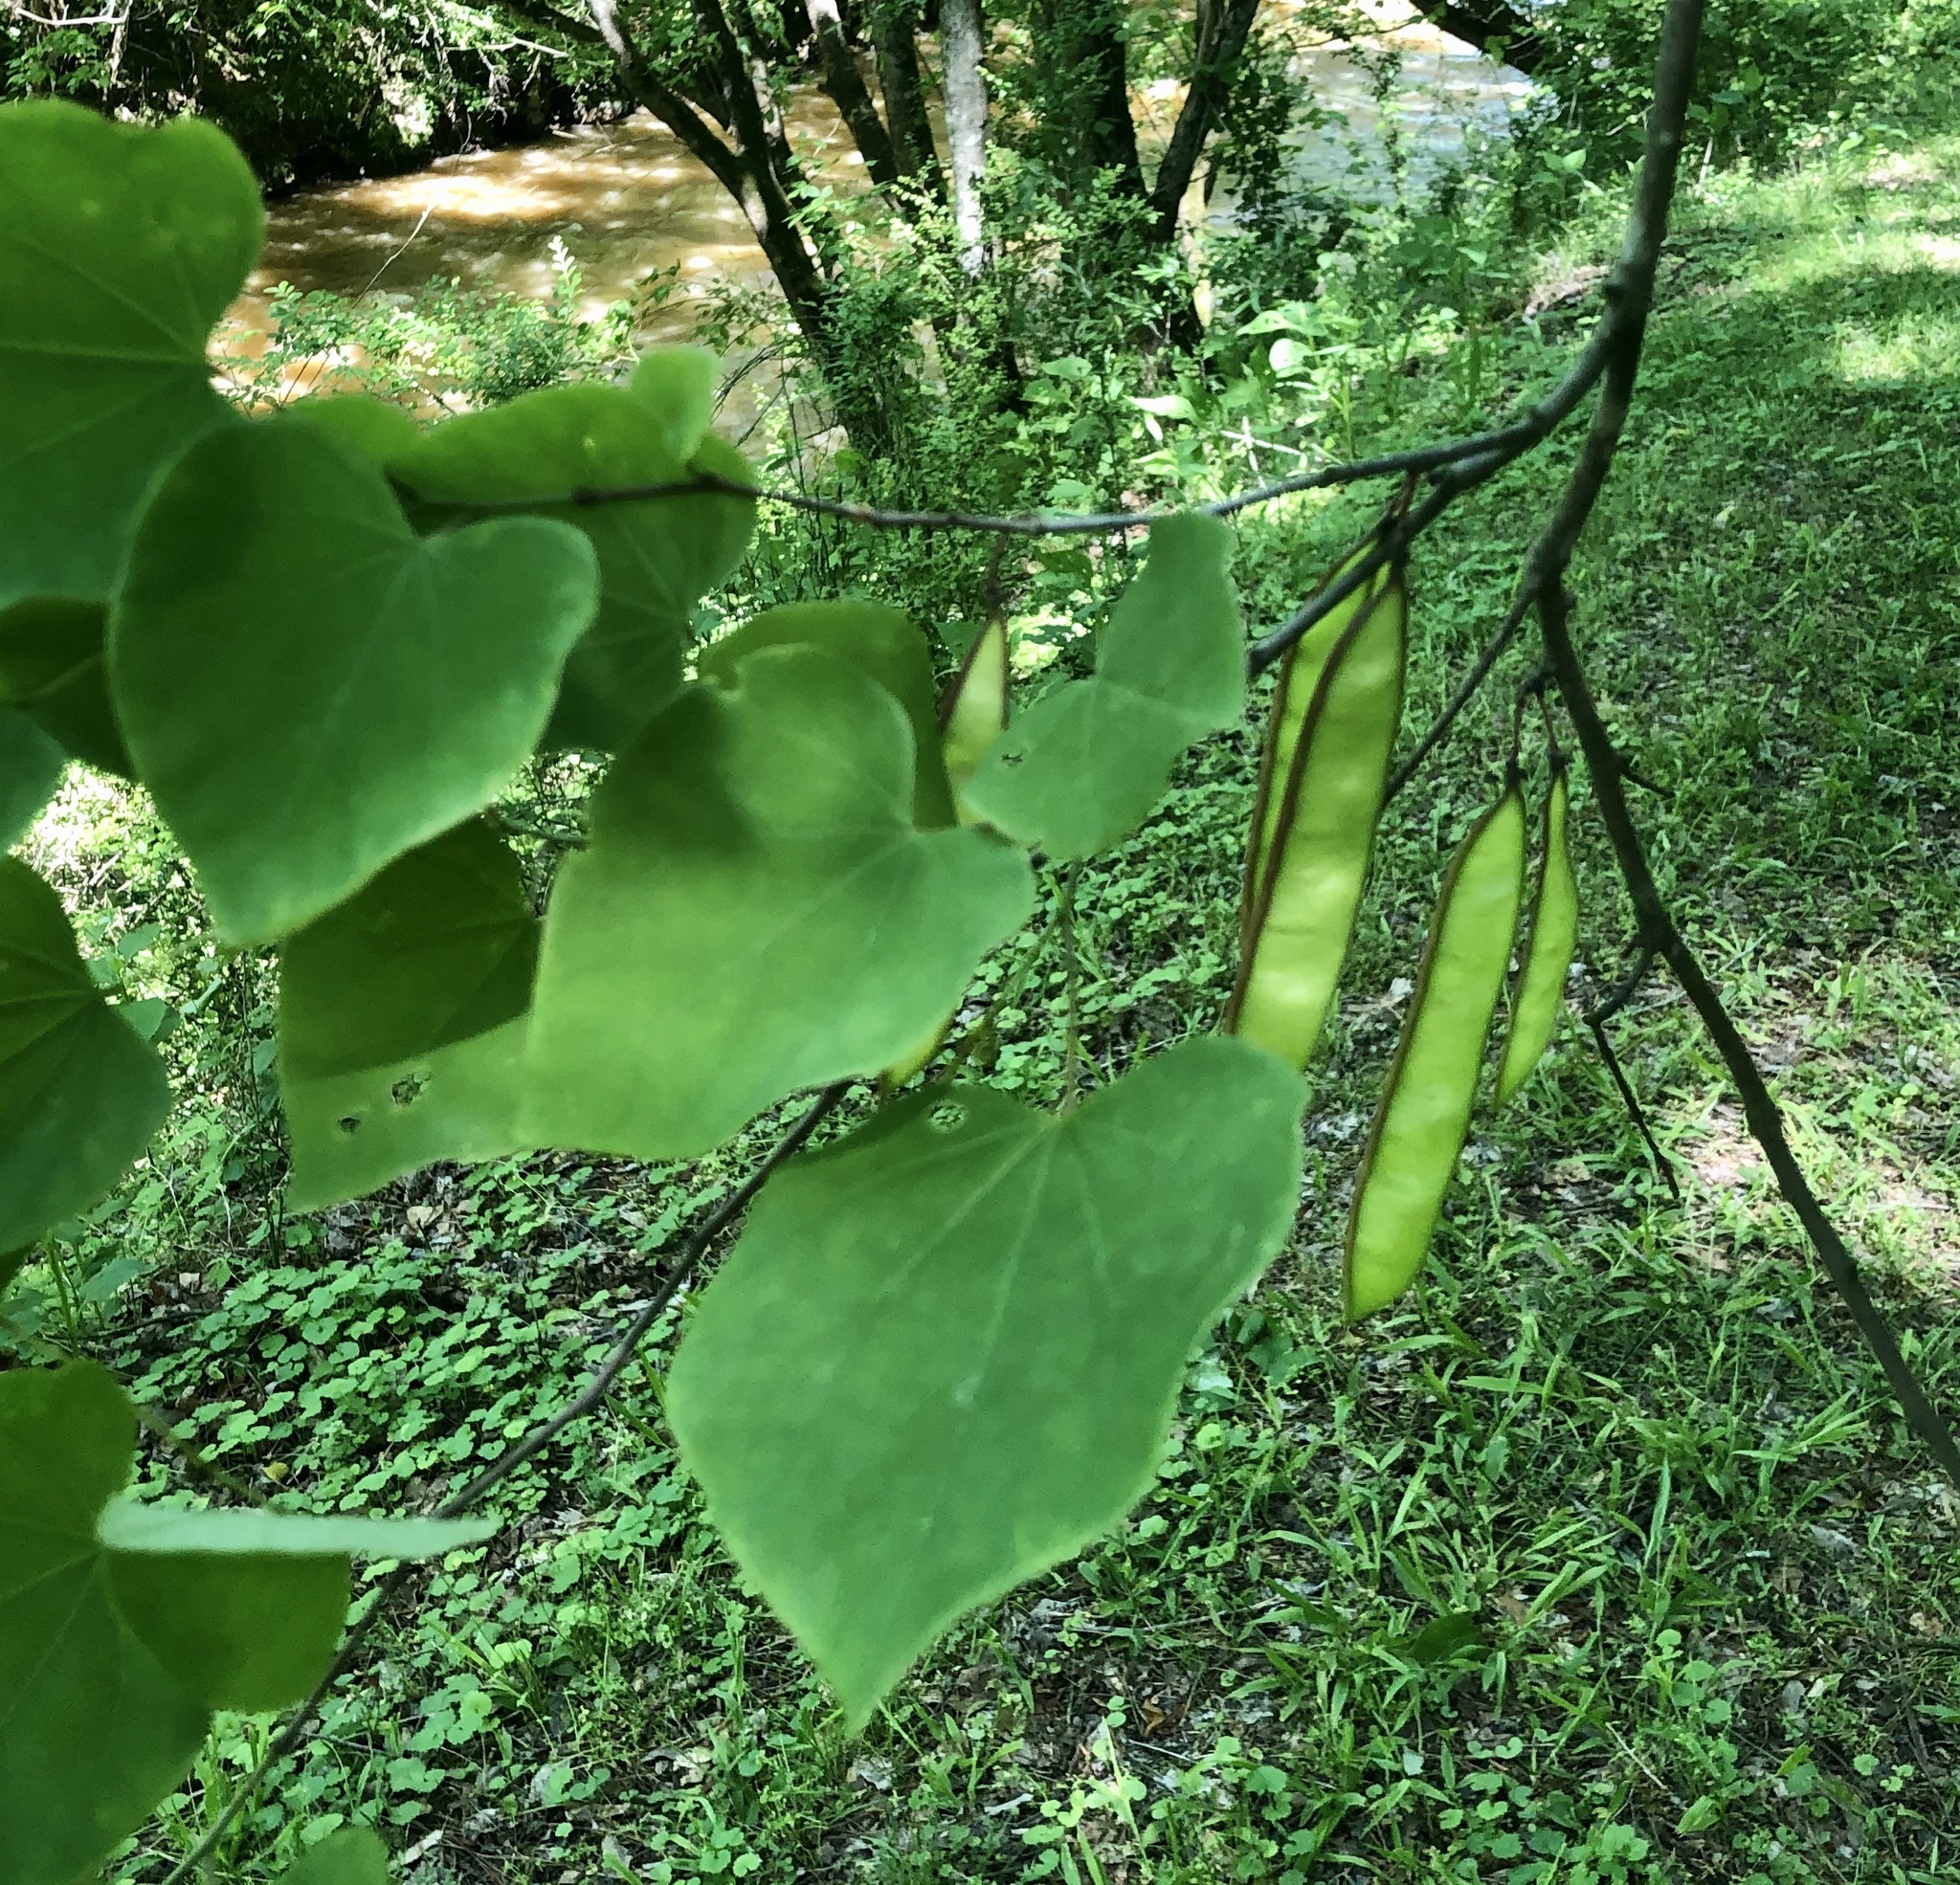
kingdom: Plantae
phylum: Tracheophyta
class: Magnoliopsida
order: Fabales
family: Fabaceae
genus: Cercis
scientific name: Cercis canadensis
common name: Eastern redbud
